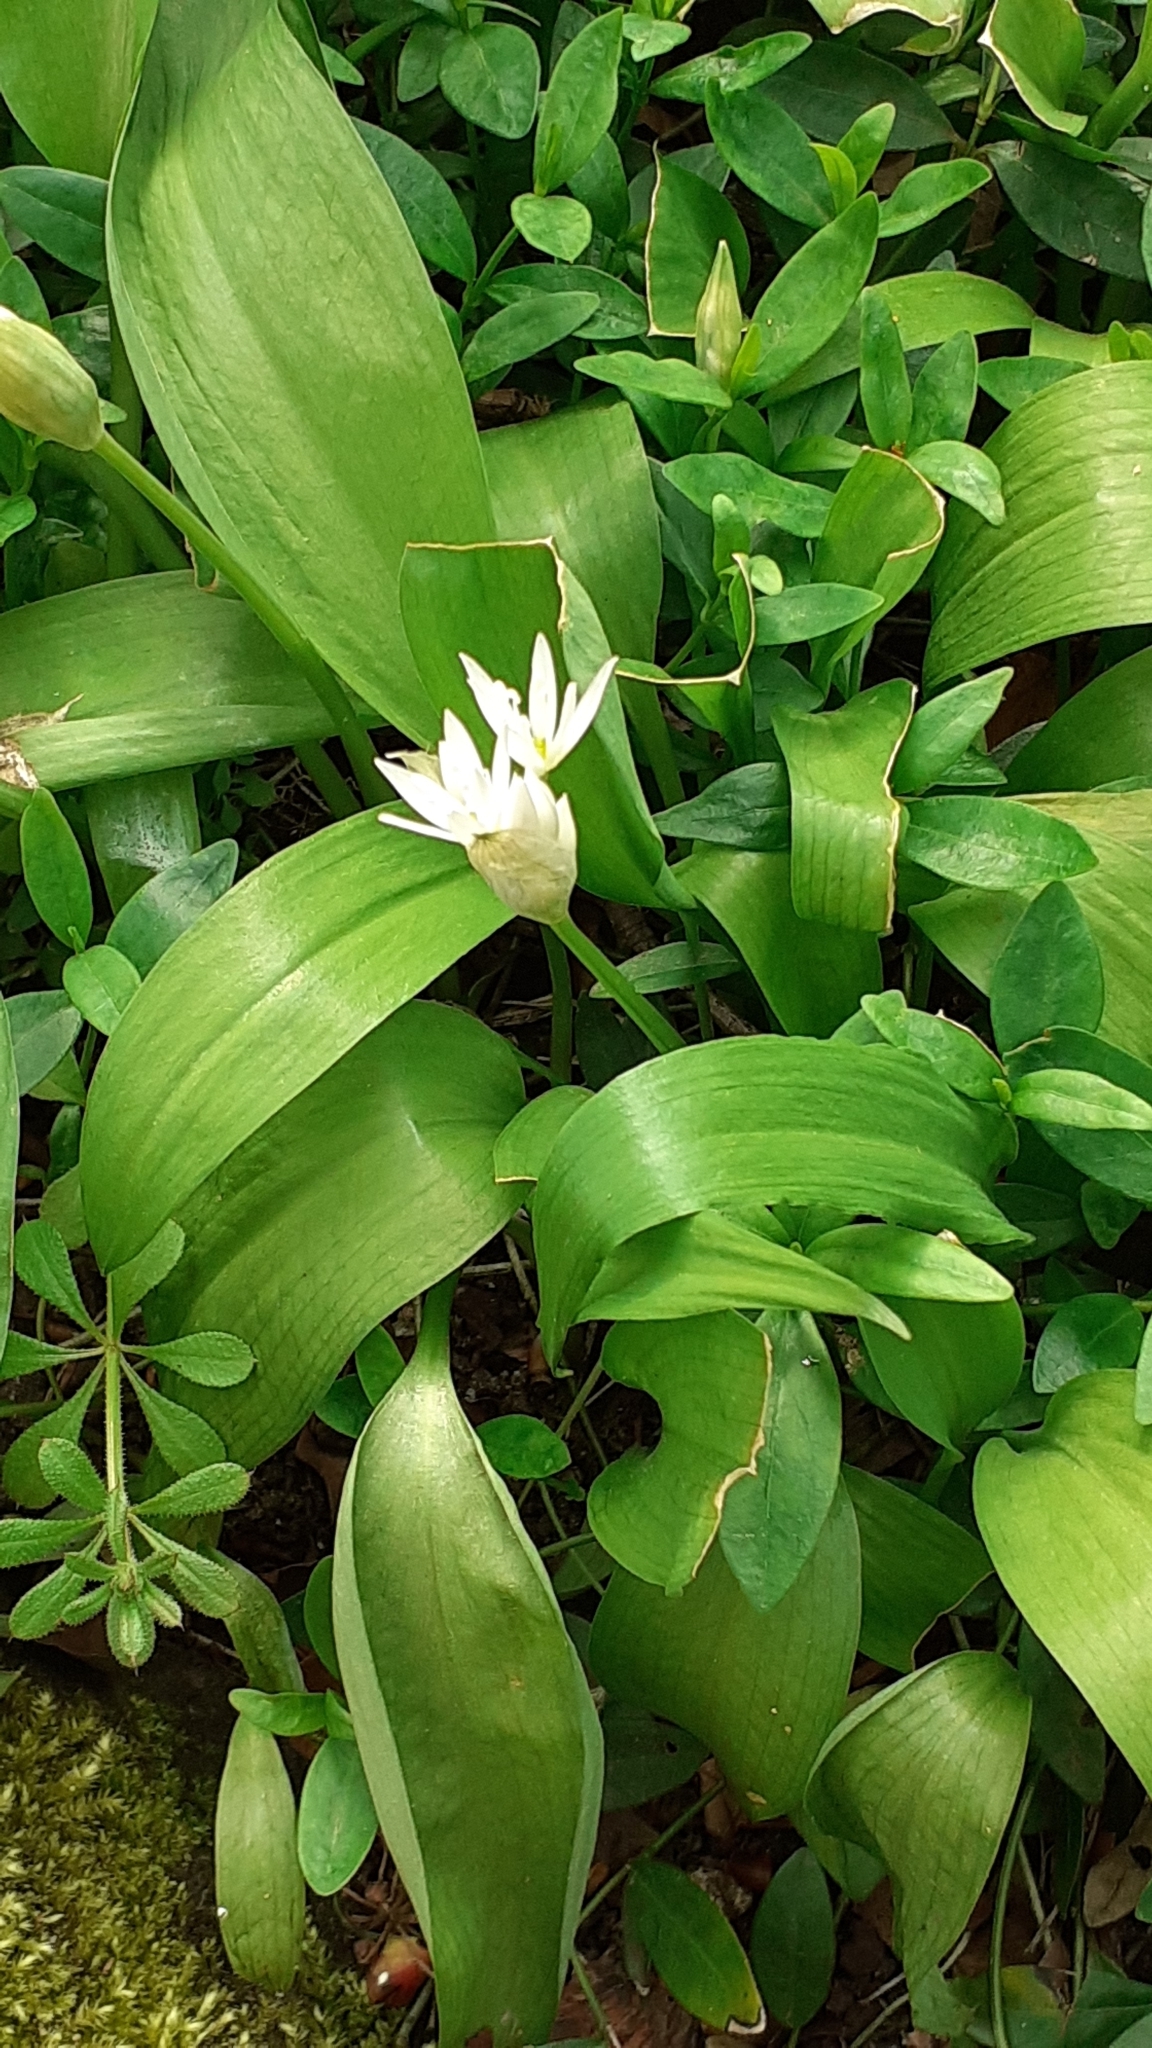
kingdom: Plantae
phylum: Tracheophyta
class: Liliopsida
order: Asparagales
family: Amaryllidaceae
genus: Allium
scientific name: Allium ursinum
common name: Ramsons
